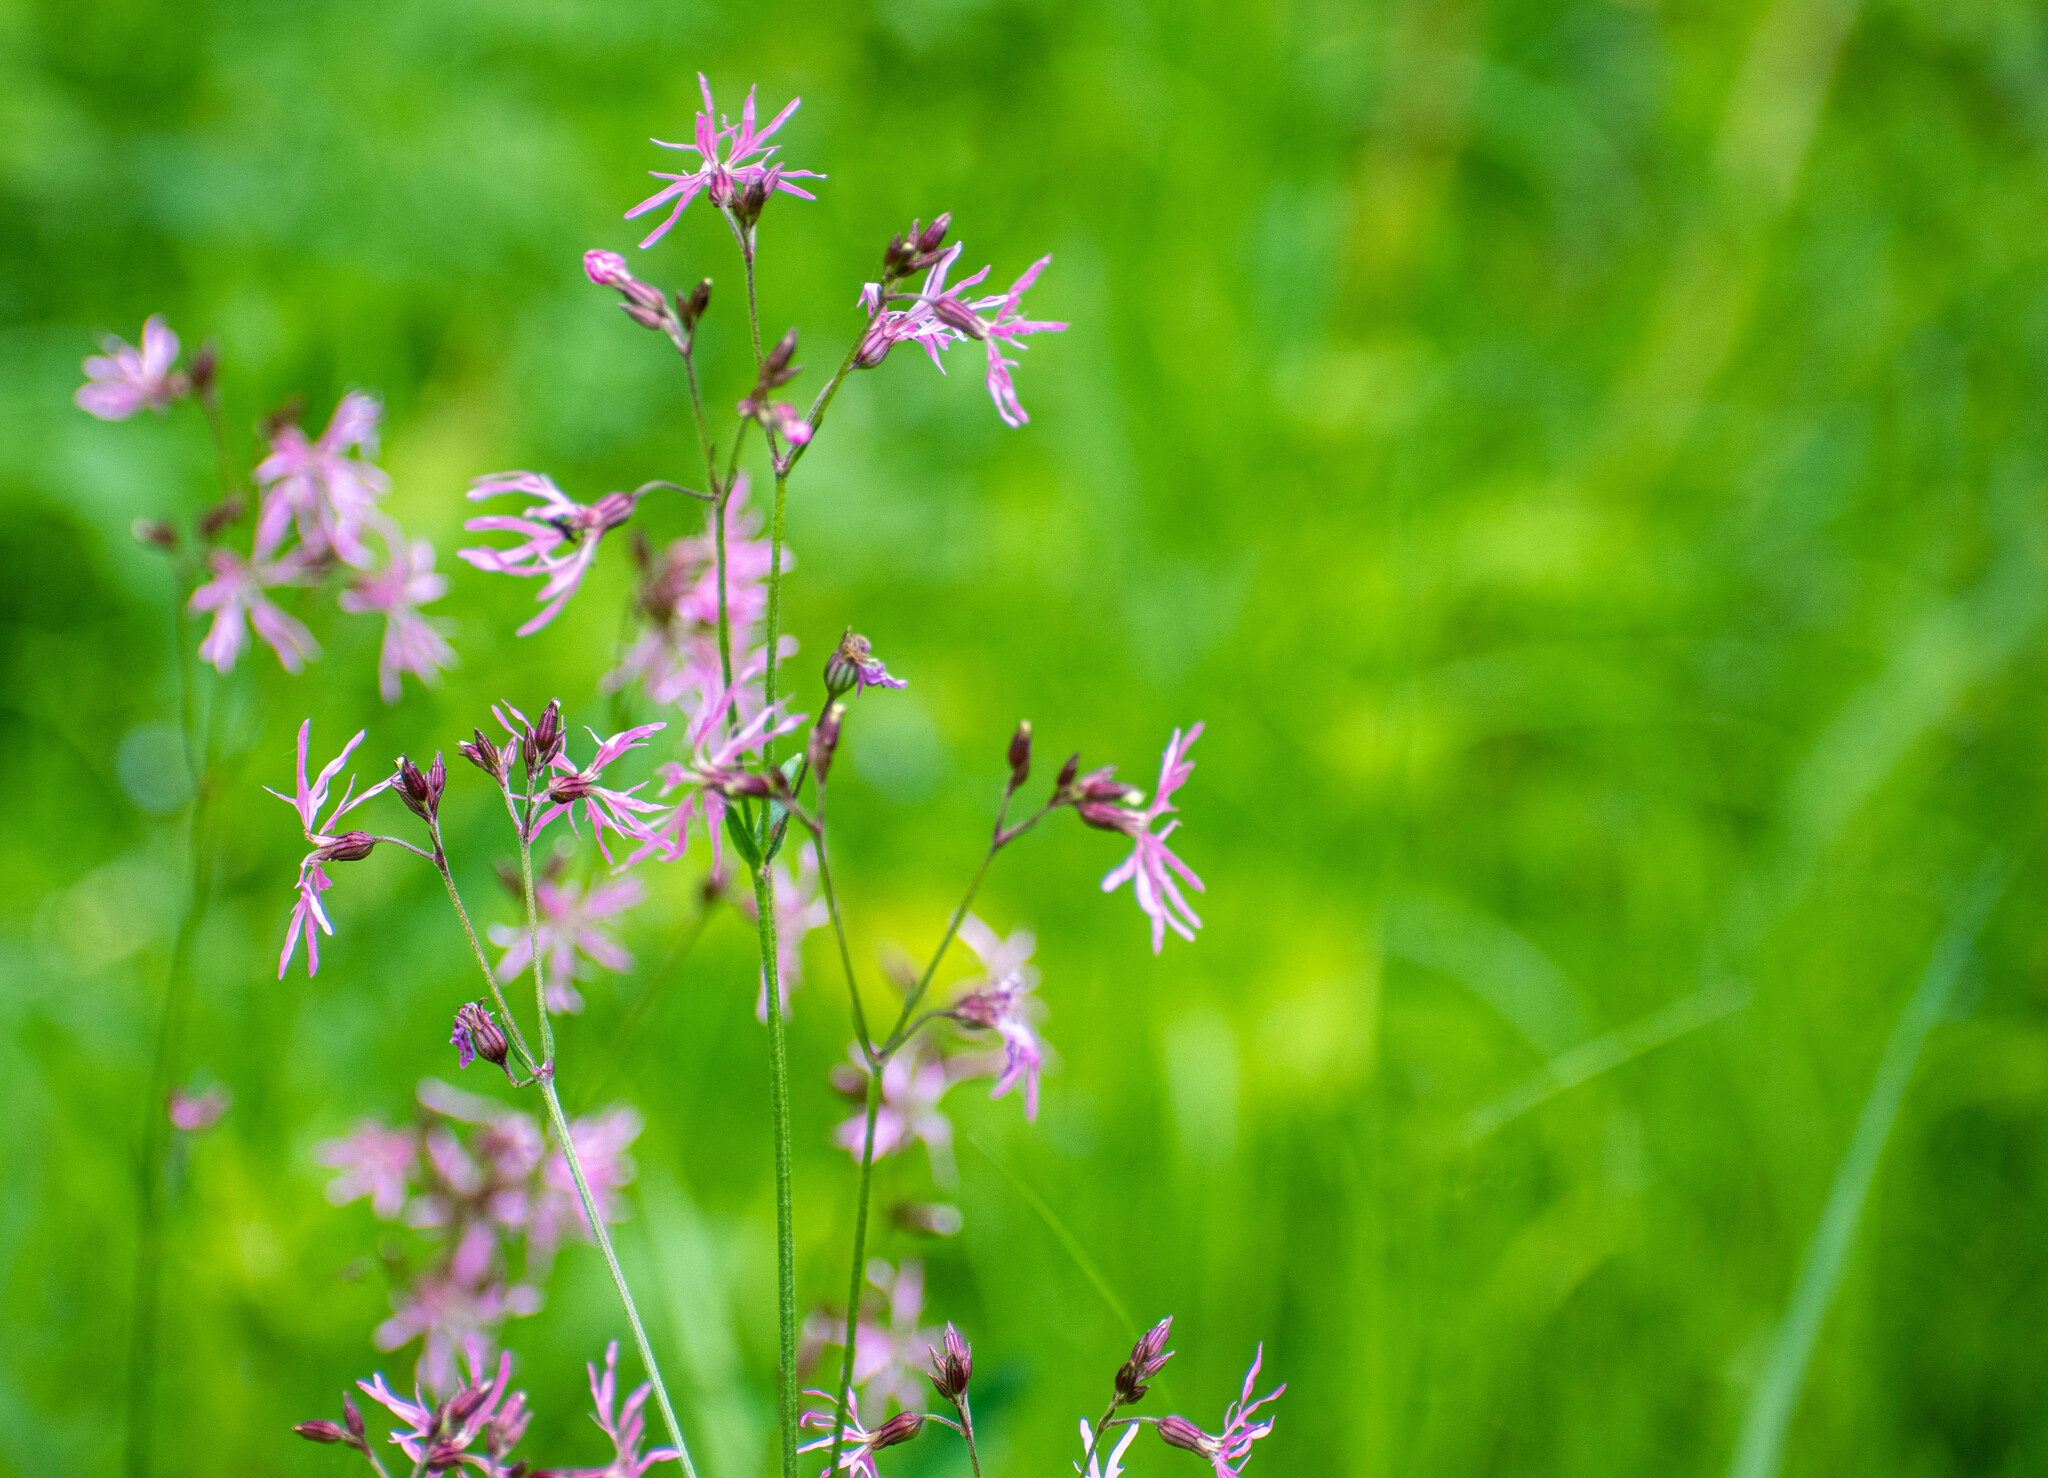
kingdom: Plantae
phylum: Tracheophyta
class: Magnoliopsida
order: Caryophyllales
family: Caryophyllaceae
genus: Silene
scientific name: Silene flos-cuculi
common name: Ragged-robin
